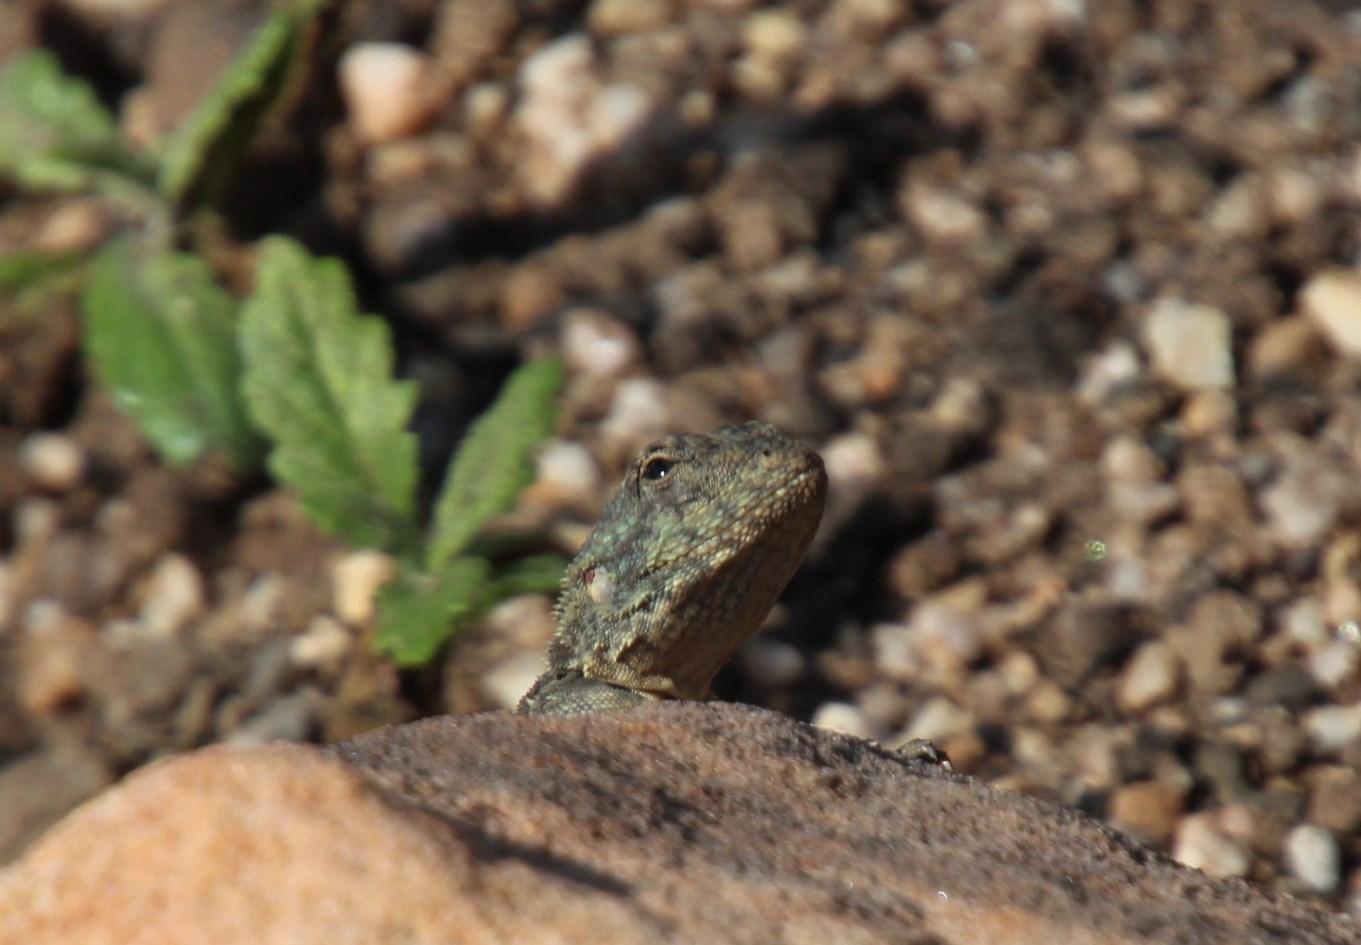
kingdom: Animalia
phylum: Chordata
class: Squamata
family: Agamidae
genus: Agama
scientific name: Agama atra
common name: Southern african rock agama
